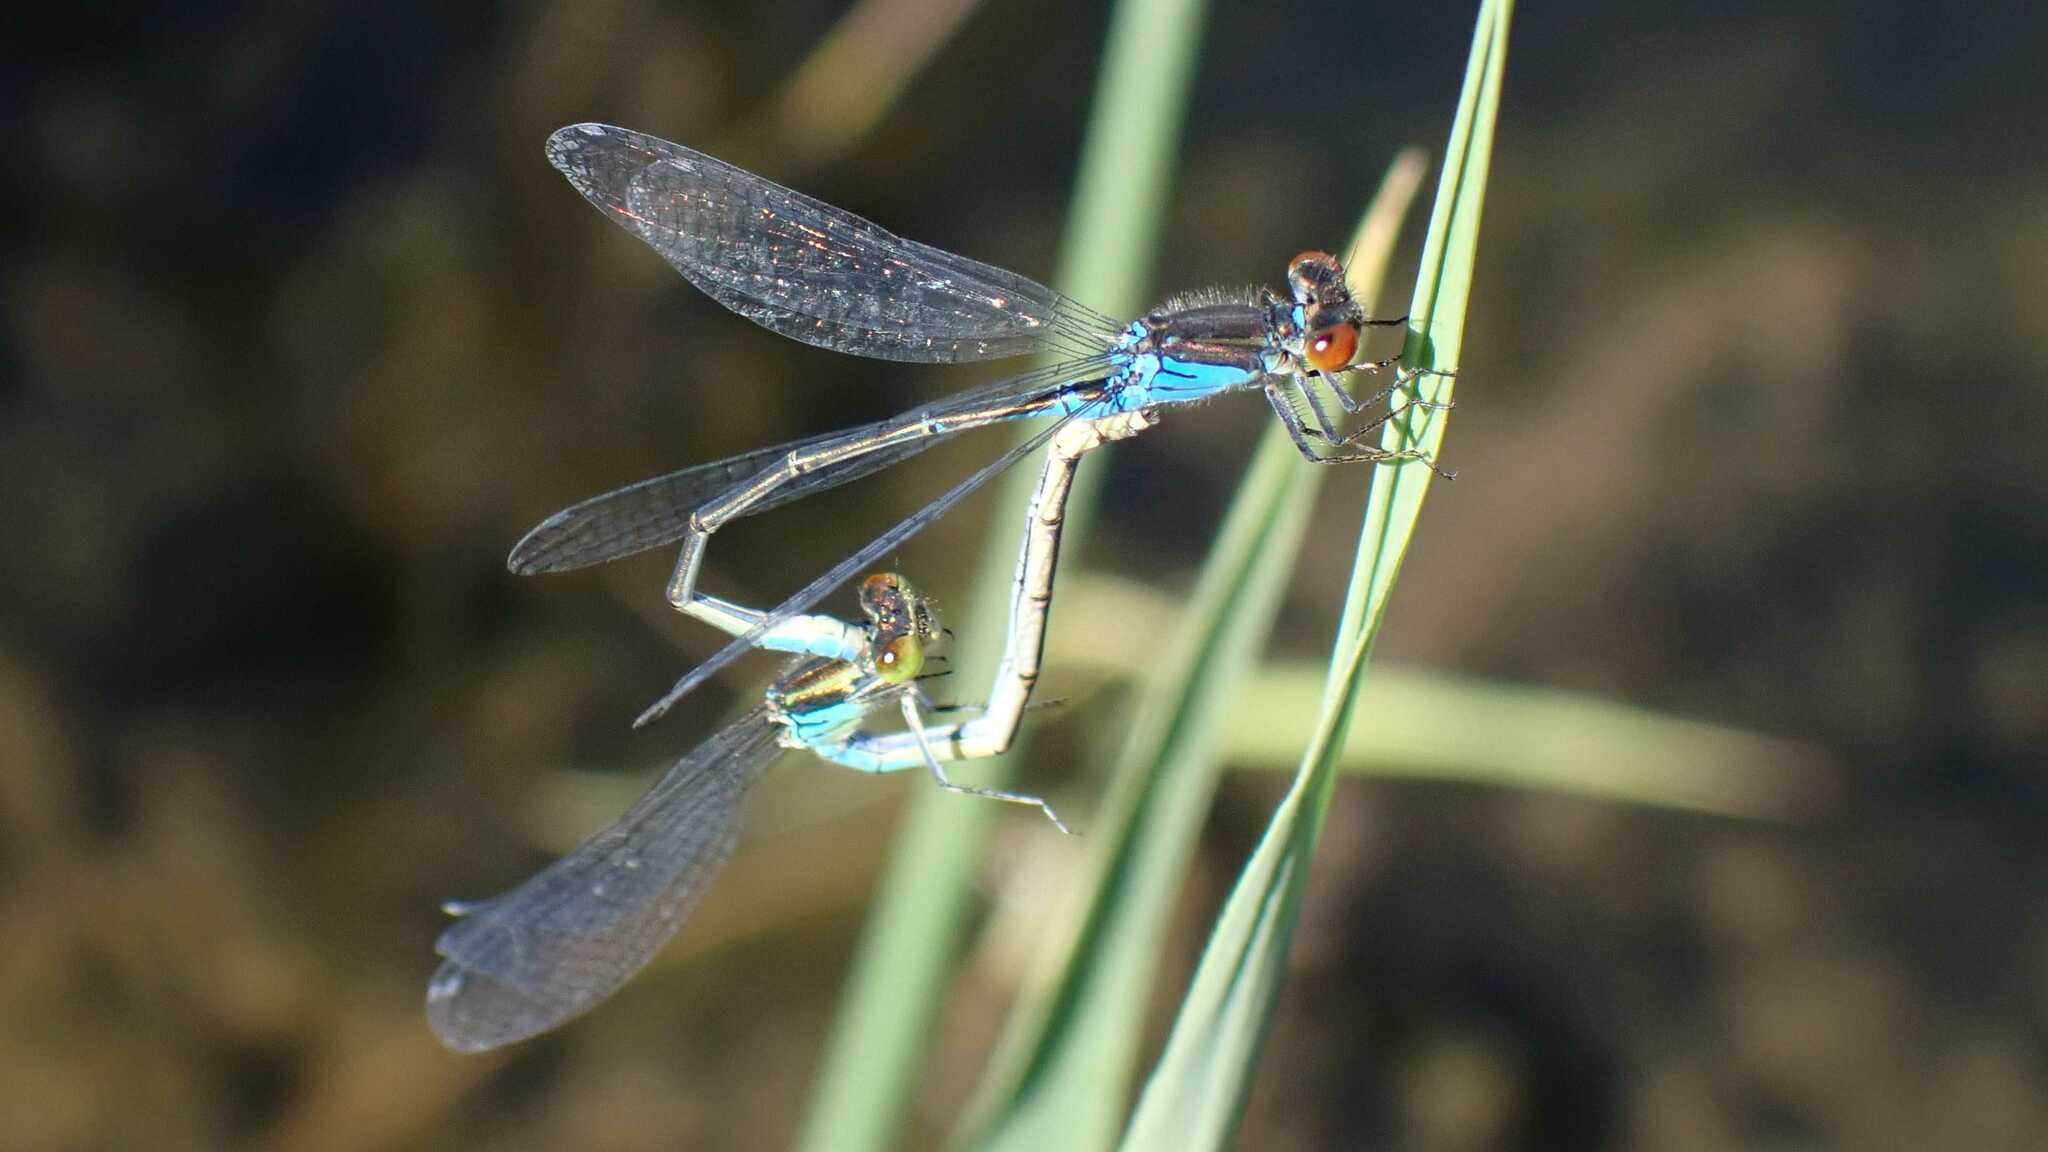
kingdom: Animalia
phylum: Arthropoda
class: Insecta
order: Odonata
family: Coenagrionidae
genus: Erythromma
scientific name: Erythromma viridulum
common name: Small red-eyed damselfly
